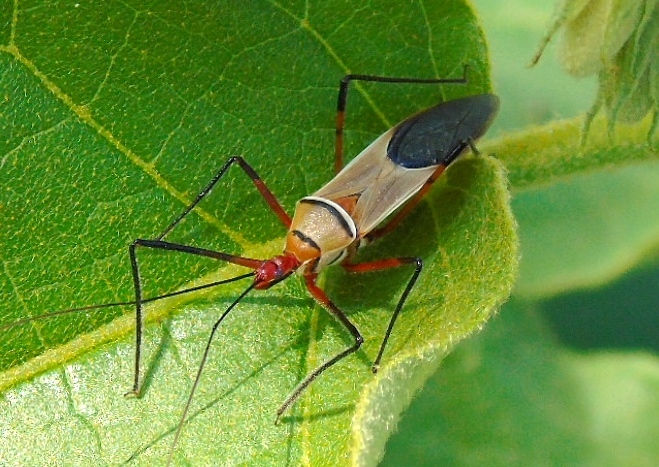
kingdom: Animalia
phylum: Arthropoda
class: Insecta
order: Hemiptera
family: Reduviidae
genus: Zelus
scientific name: Zelus grassans
